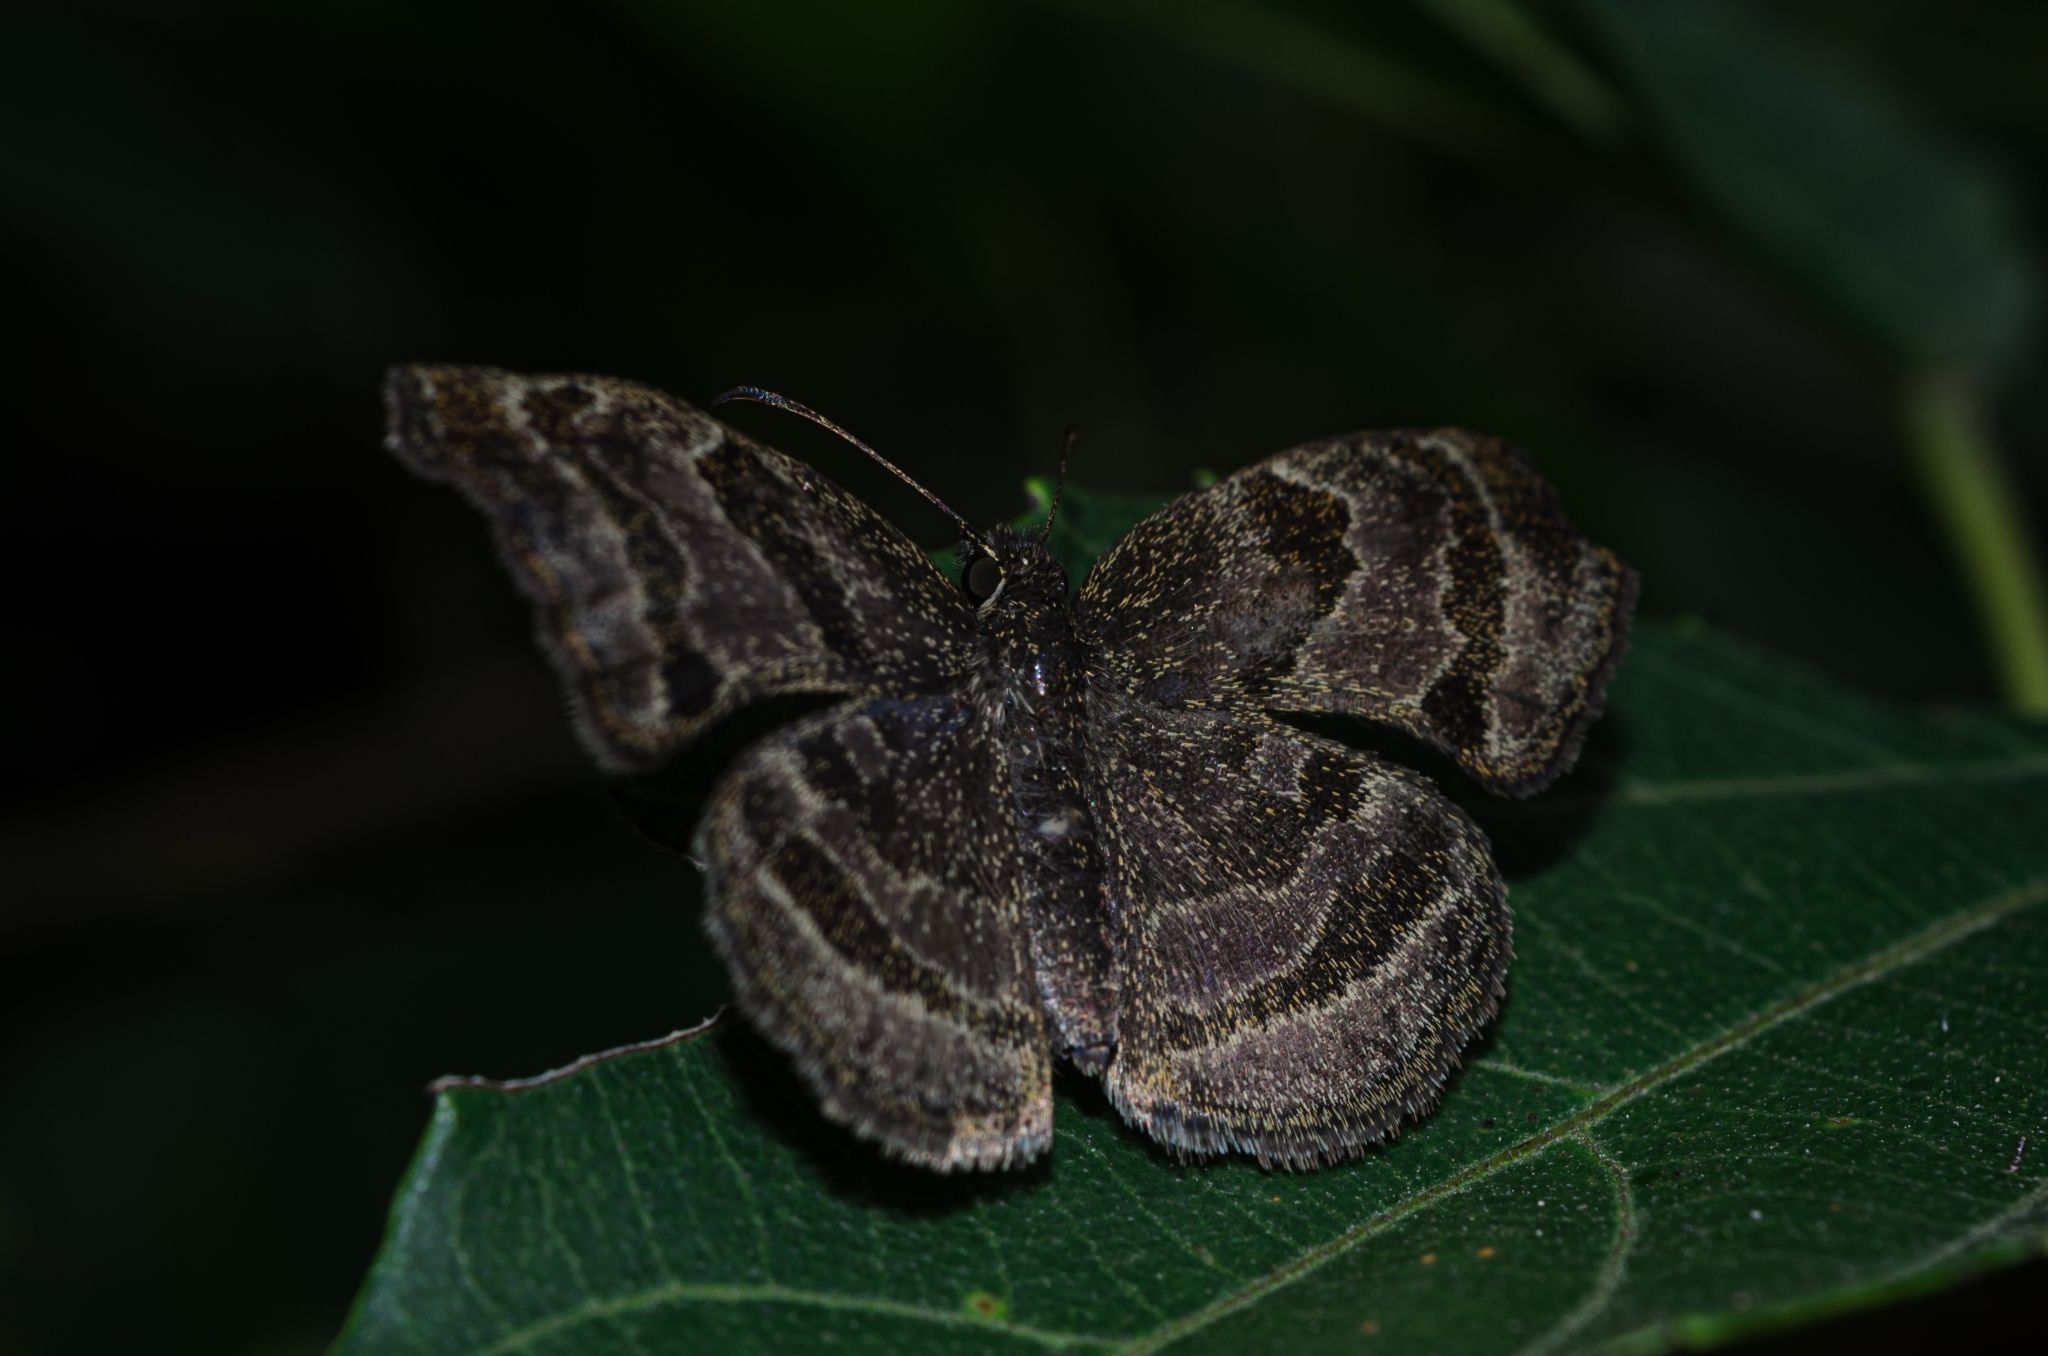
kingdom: Animalia
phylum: Arthropoda
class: Insecta
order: Lepidoptera
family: Hesperiidae
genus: Trina
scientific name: Trina geometrina
